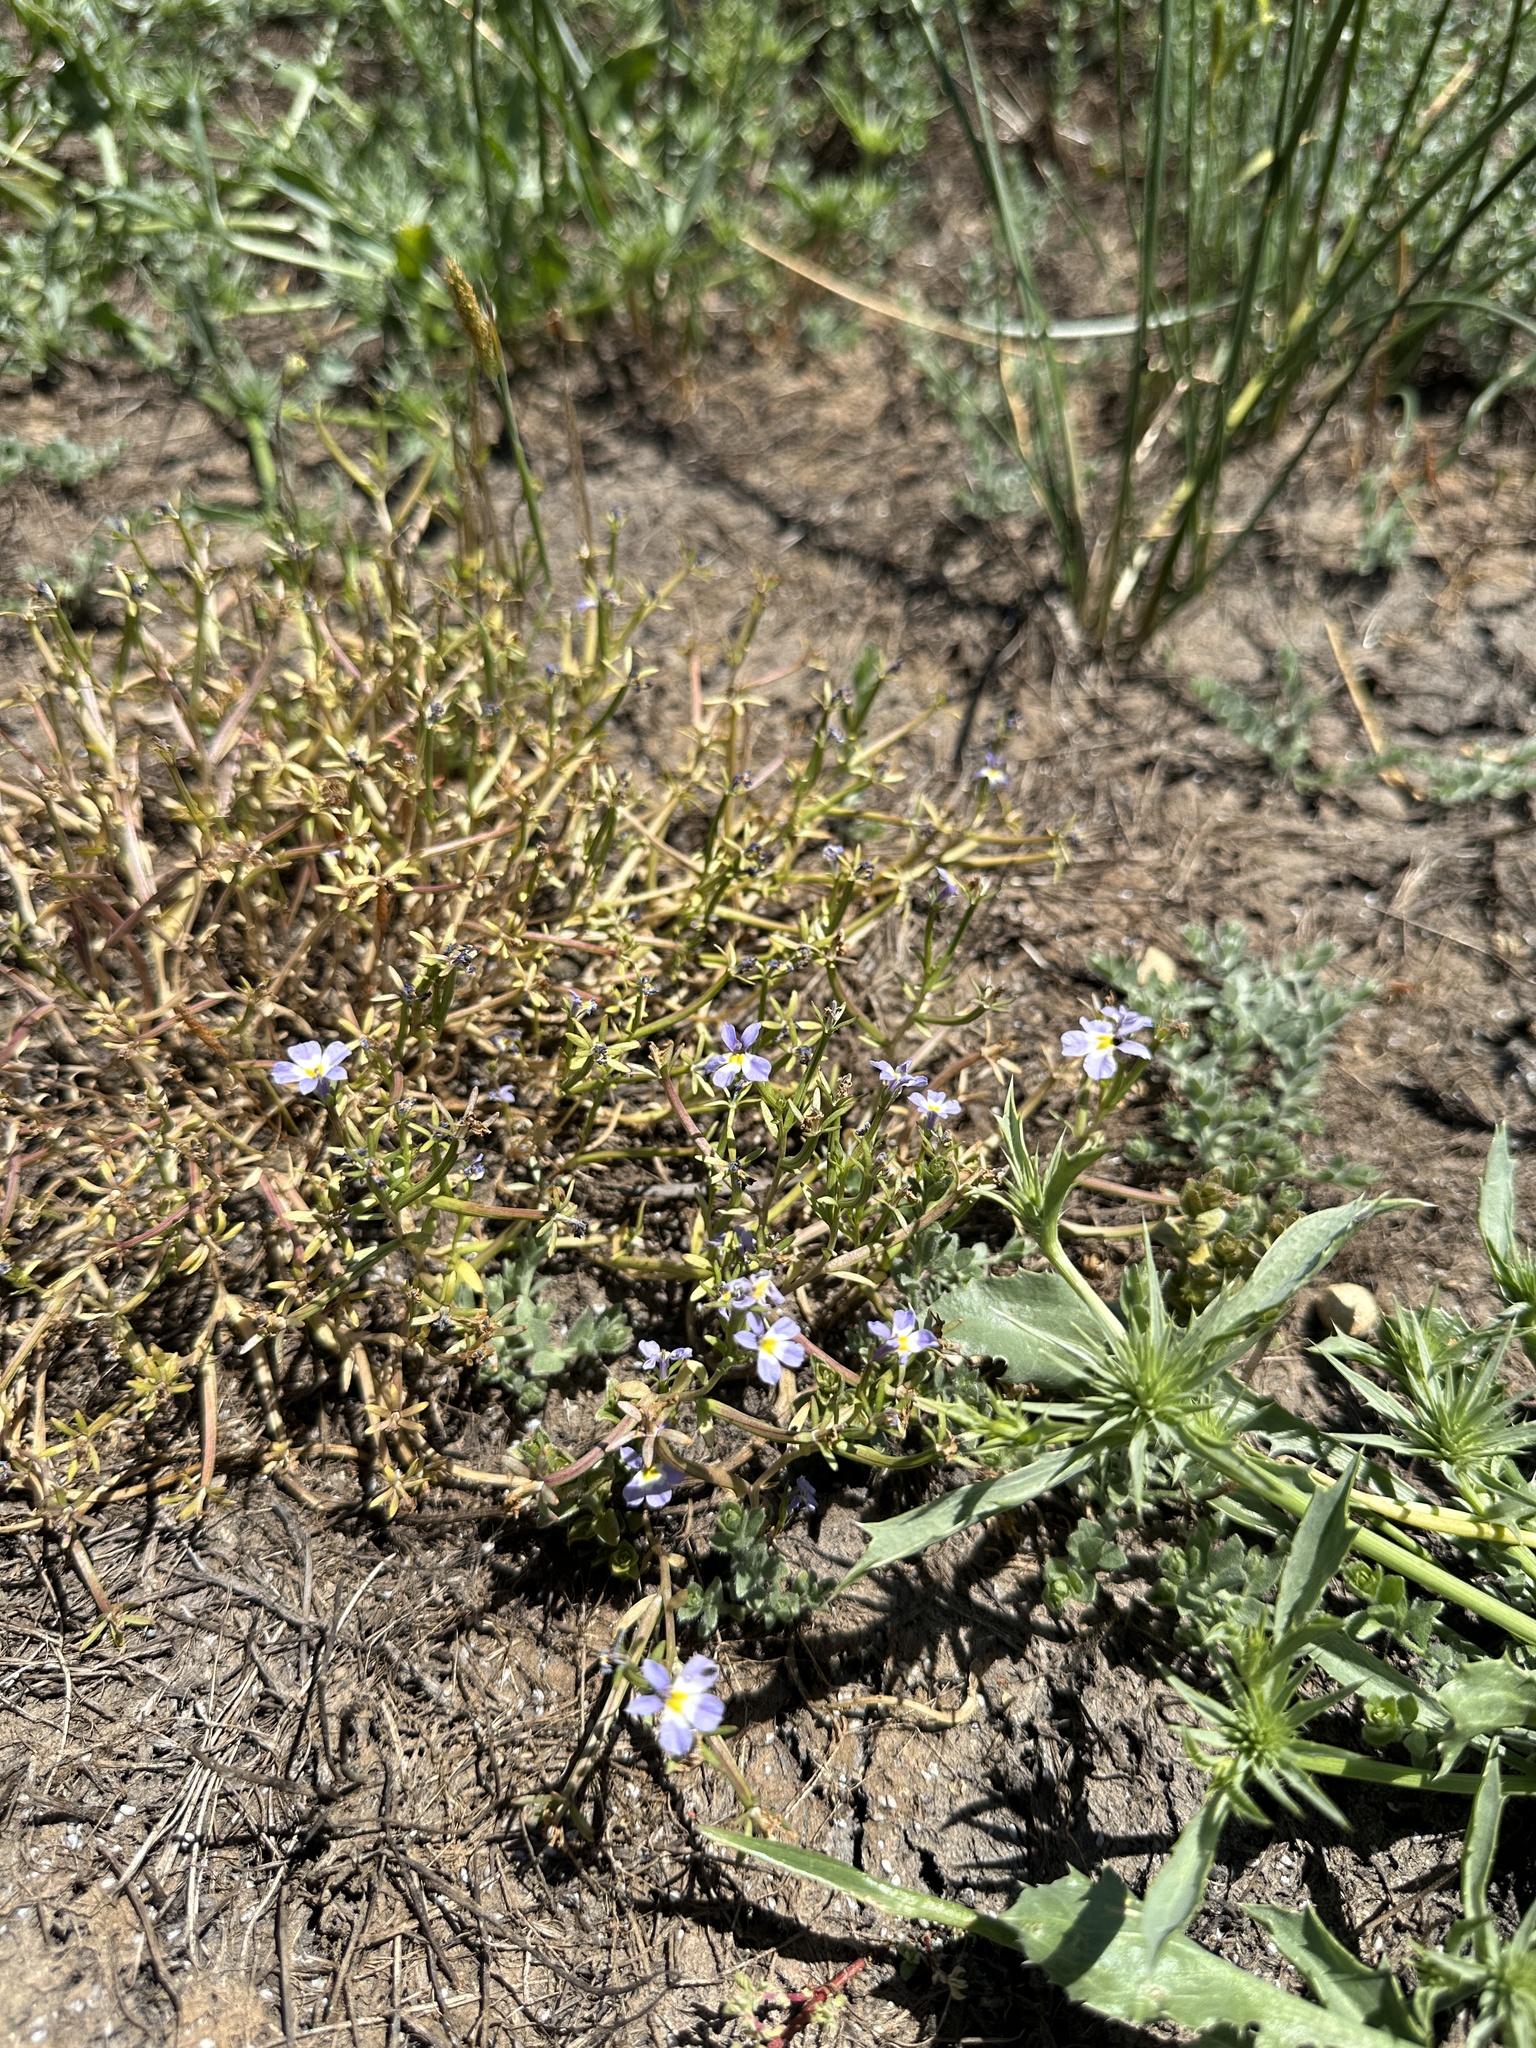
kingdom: Plantae
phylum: Tracheophyta
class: Magnoliopsida
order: Asterales
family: Campanulaceae
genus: Downingia
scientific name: Downingia cuspidata
